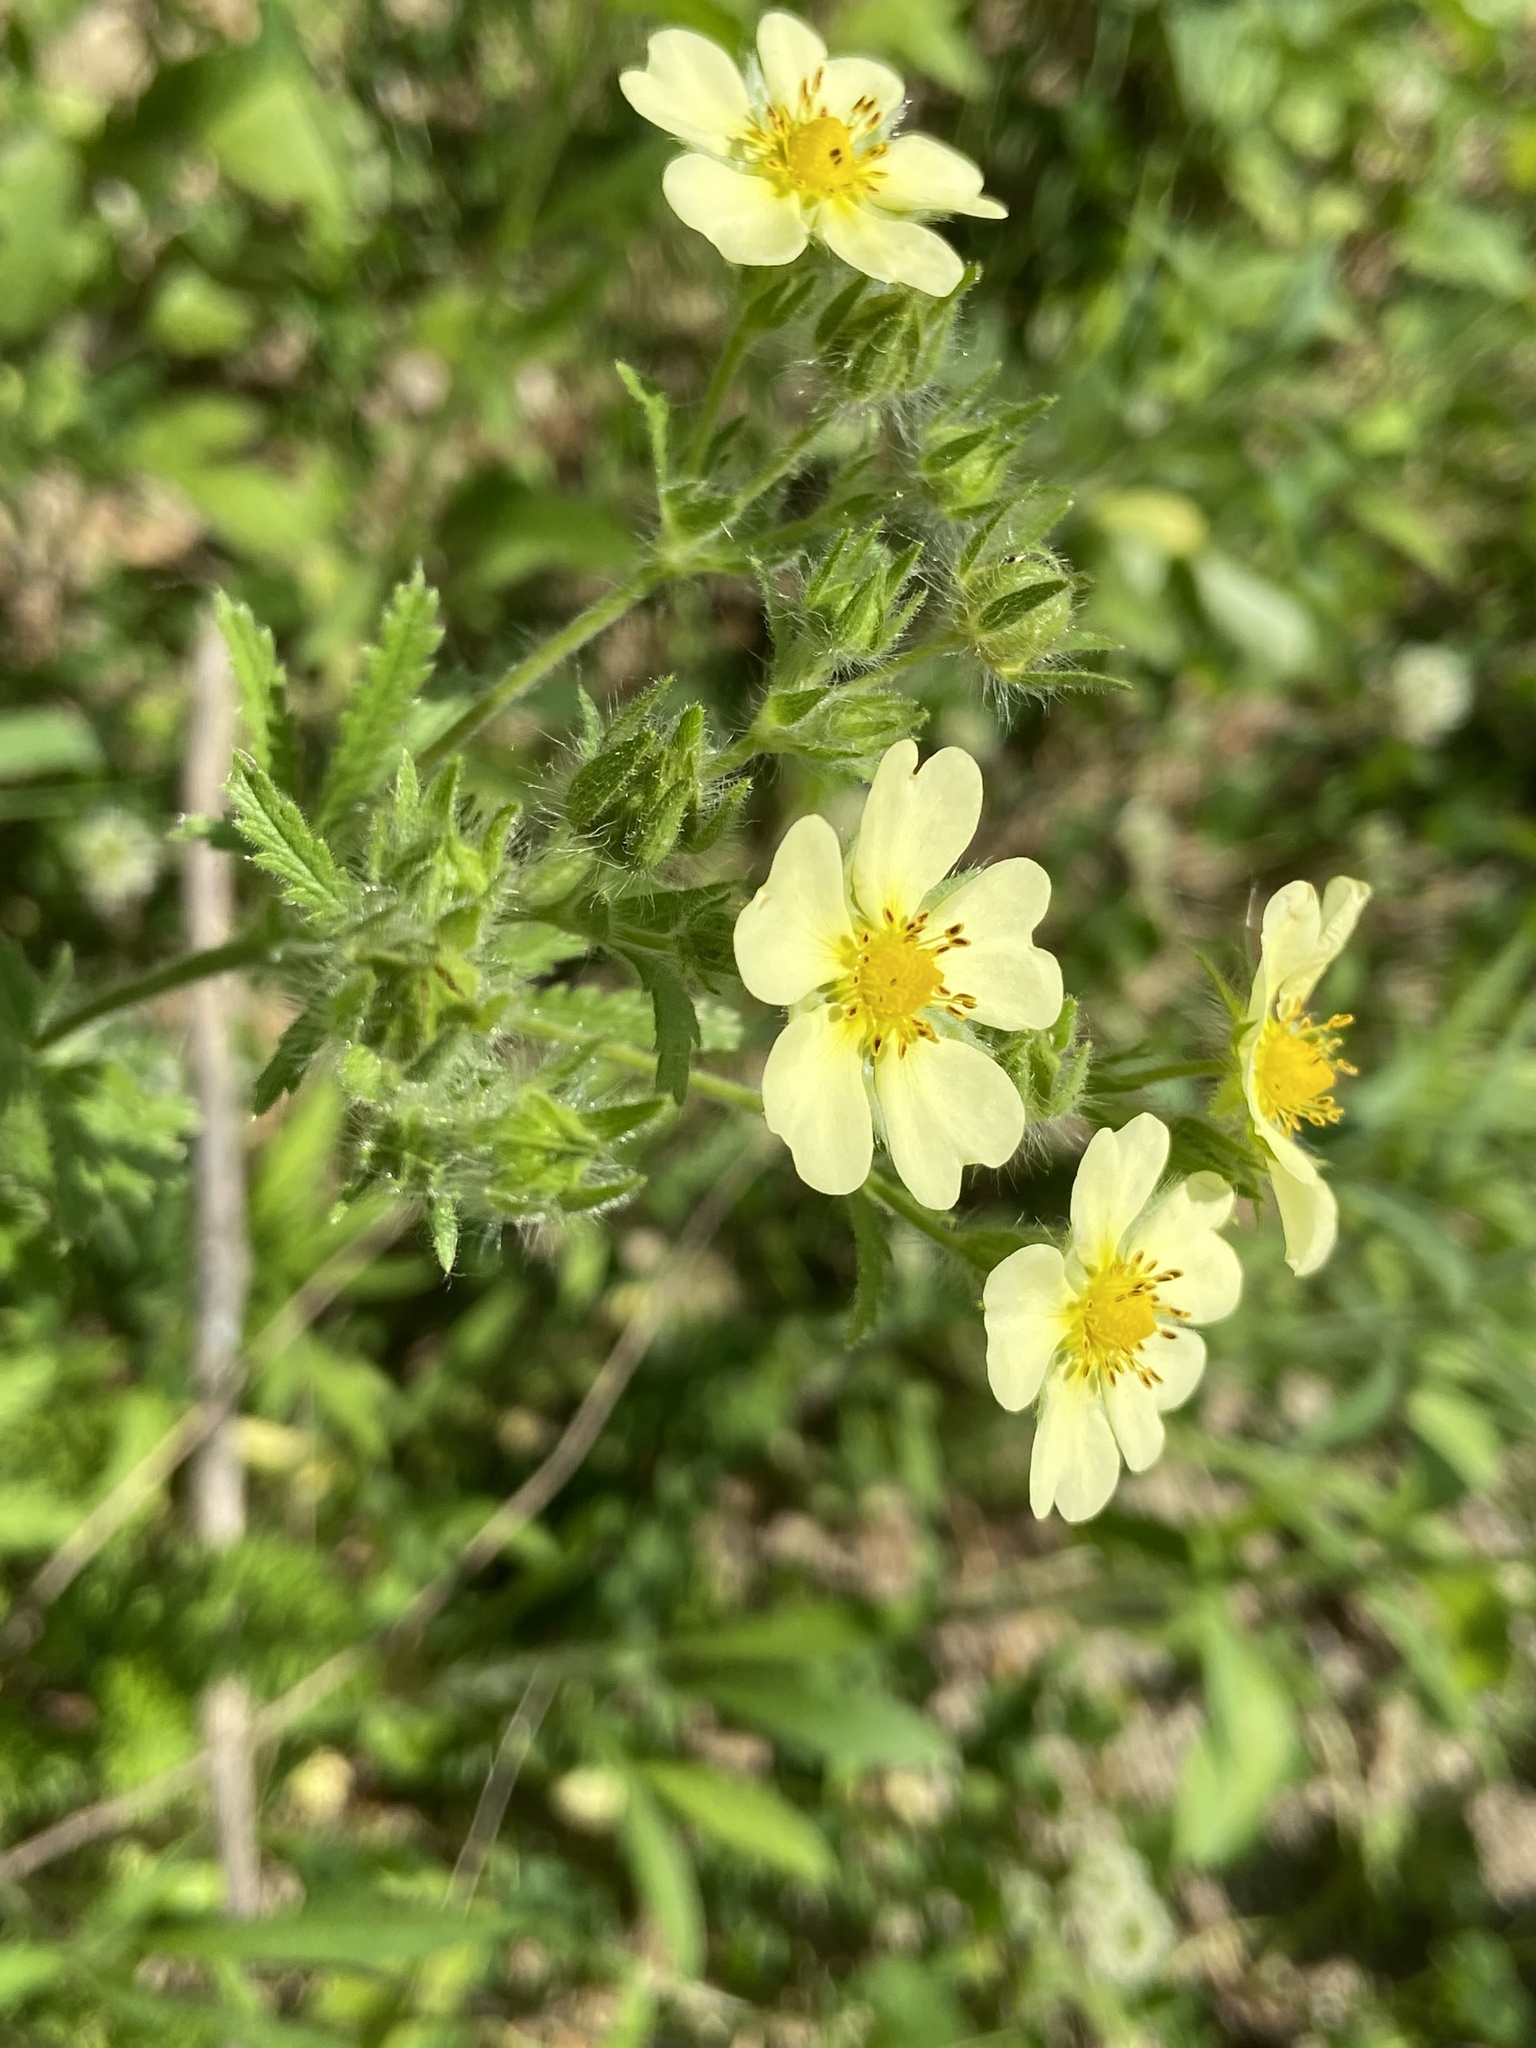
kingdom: Plantae
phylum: Tracheophyta
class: Magnoliopsida
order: Rosales
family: Rosaceae
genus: Potentilla
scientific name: Potentilla recta
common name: Sulphur cinquefoil
